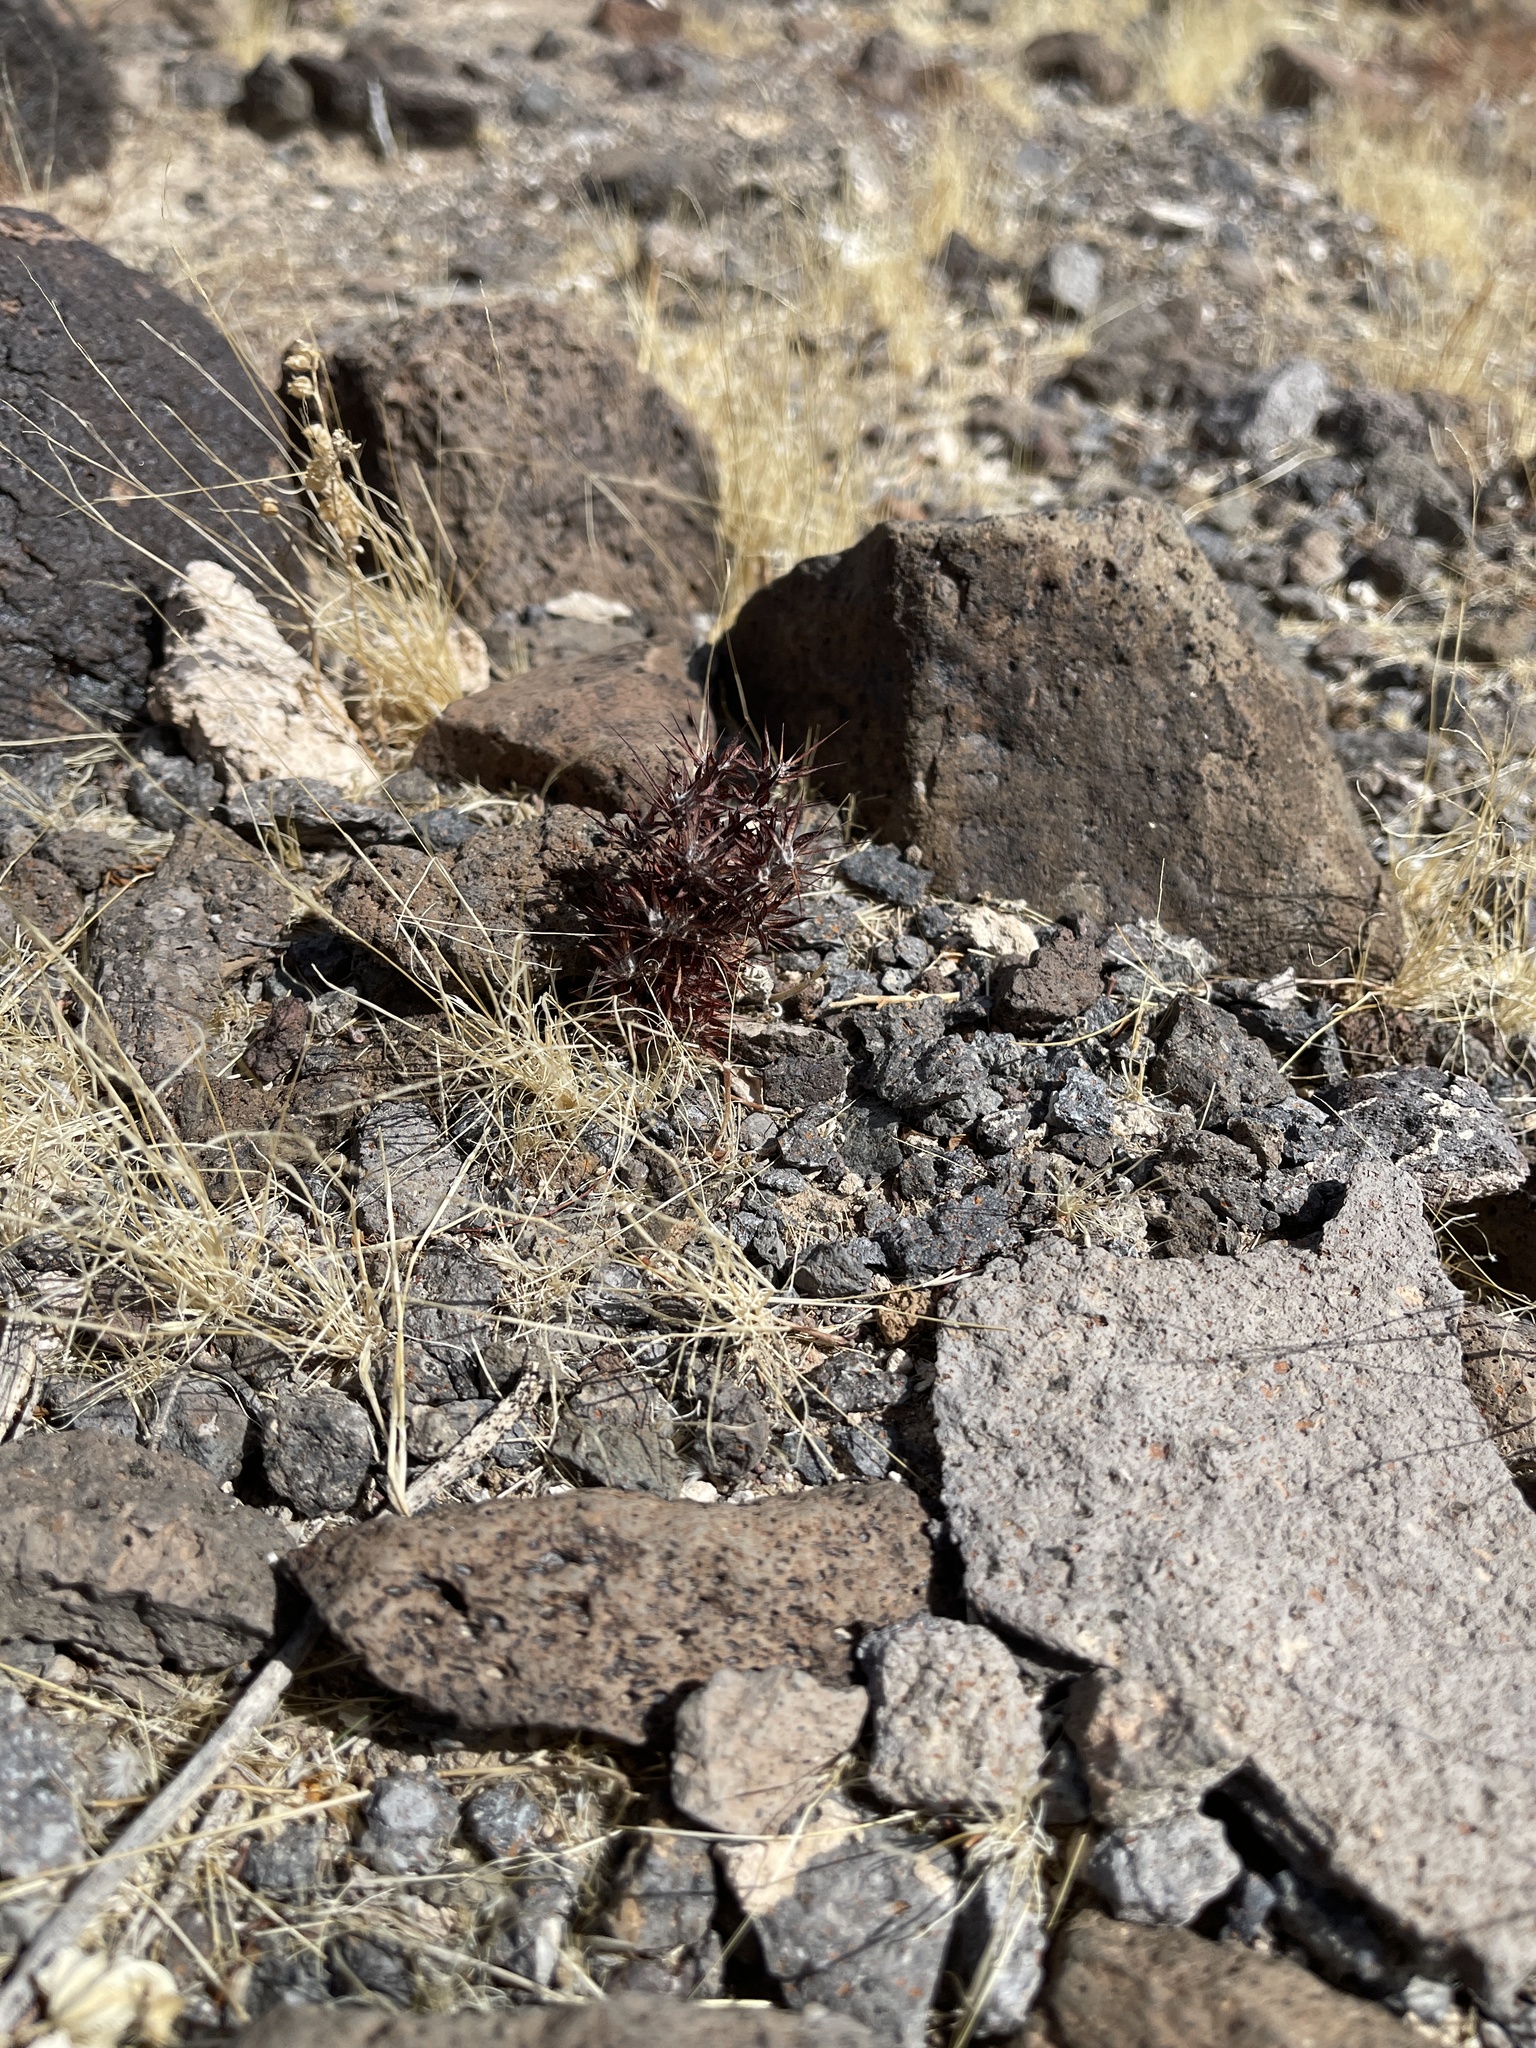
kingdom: Plantae
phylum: Tracheophyta
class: Magnoliopsida
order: Caryophyllales
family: Polygonaceae
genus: Chorizanthe
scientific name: Chorizanthe rigida
